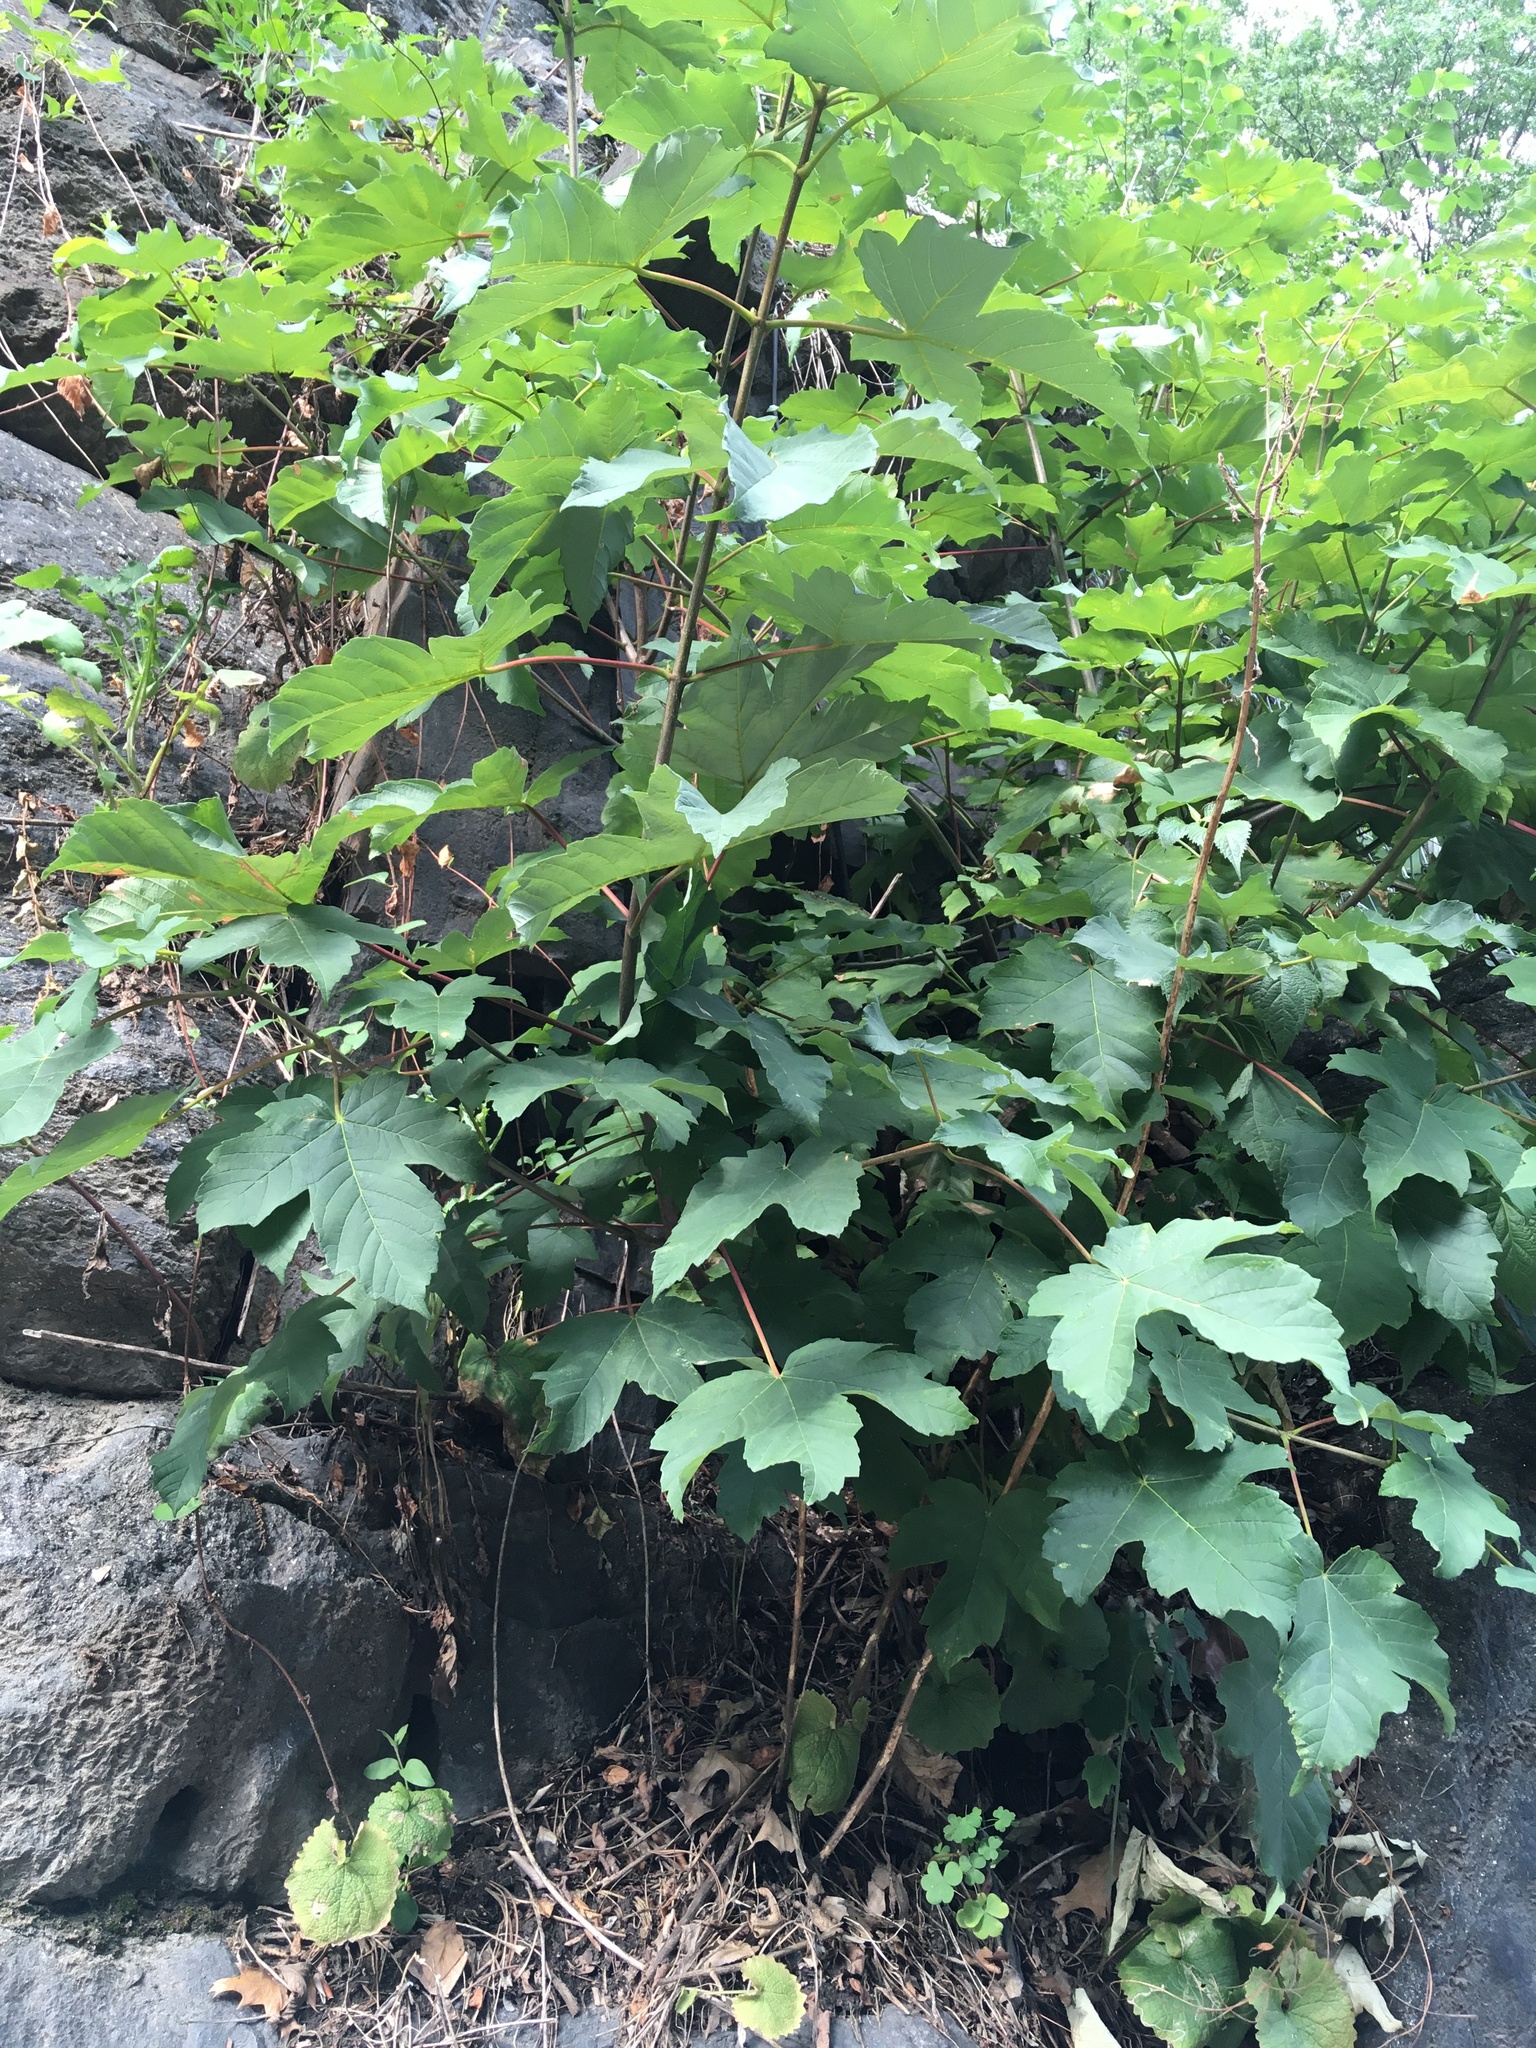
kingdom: Plantae
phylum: Tracheophyta
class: Magnoliopsida
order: Sapindales
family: Sapindaceae
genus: Acer
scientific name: Acer pseudoplatanus
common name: Sycamore
